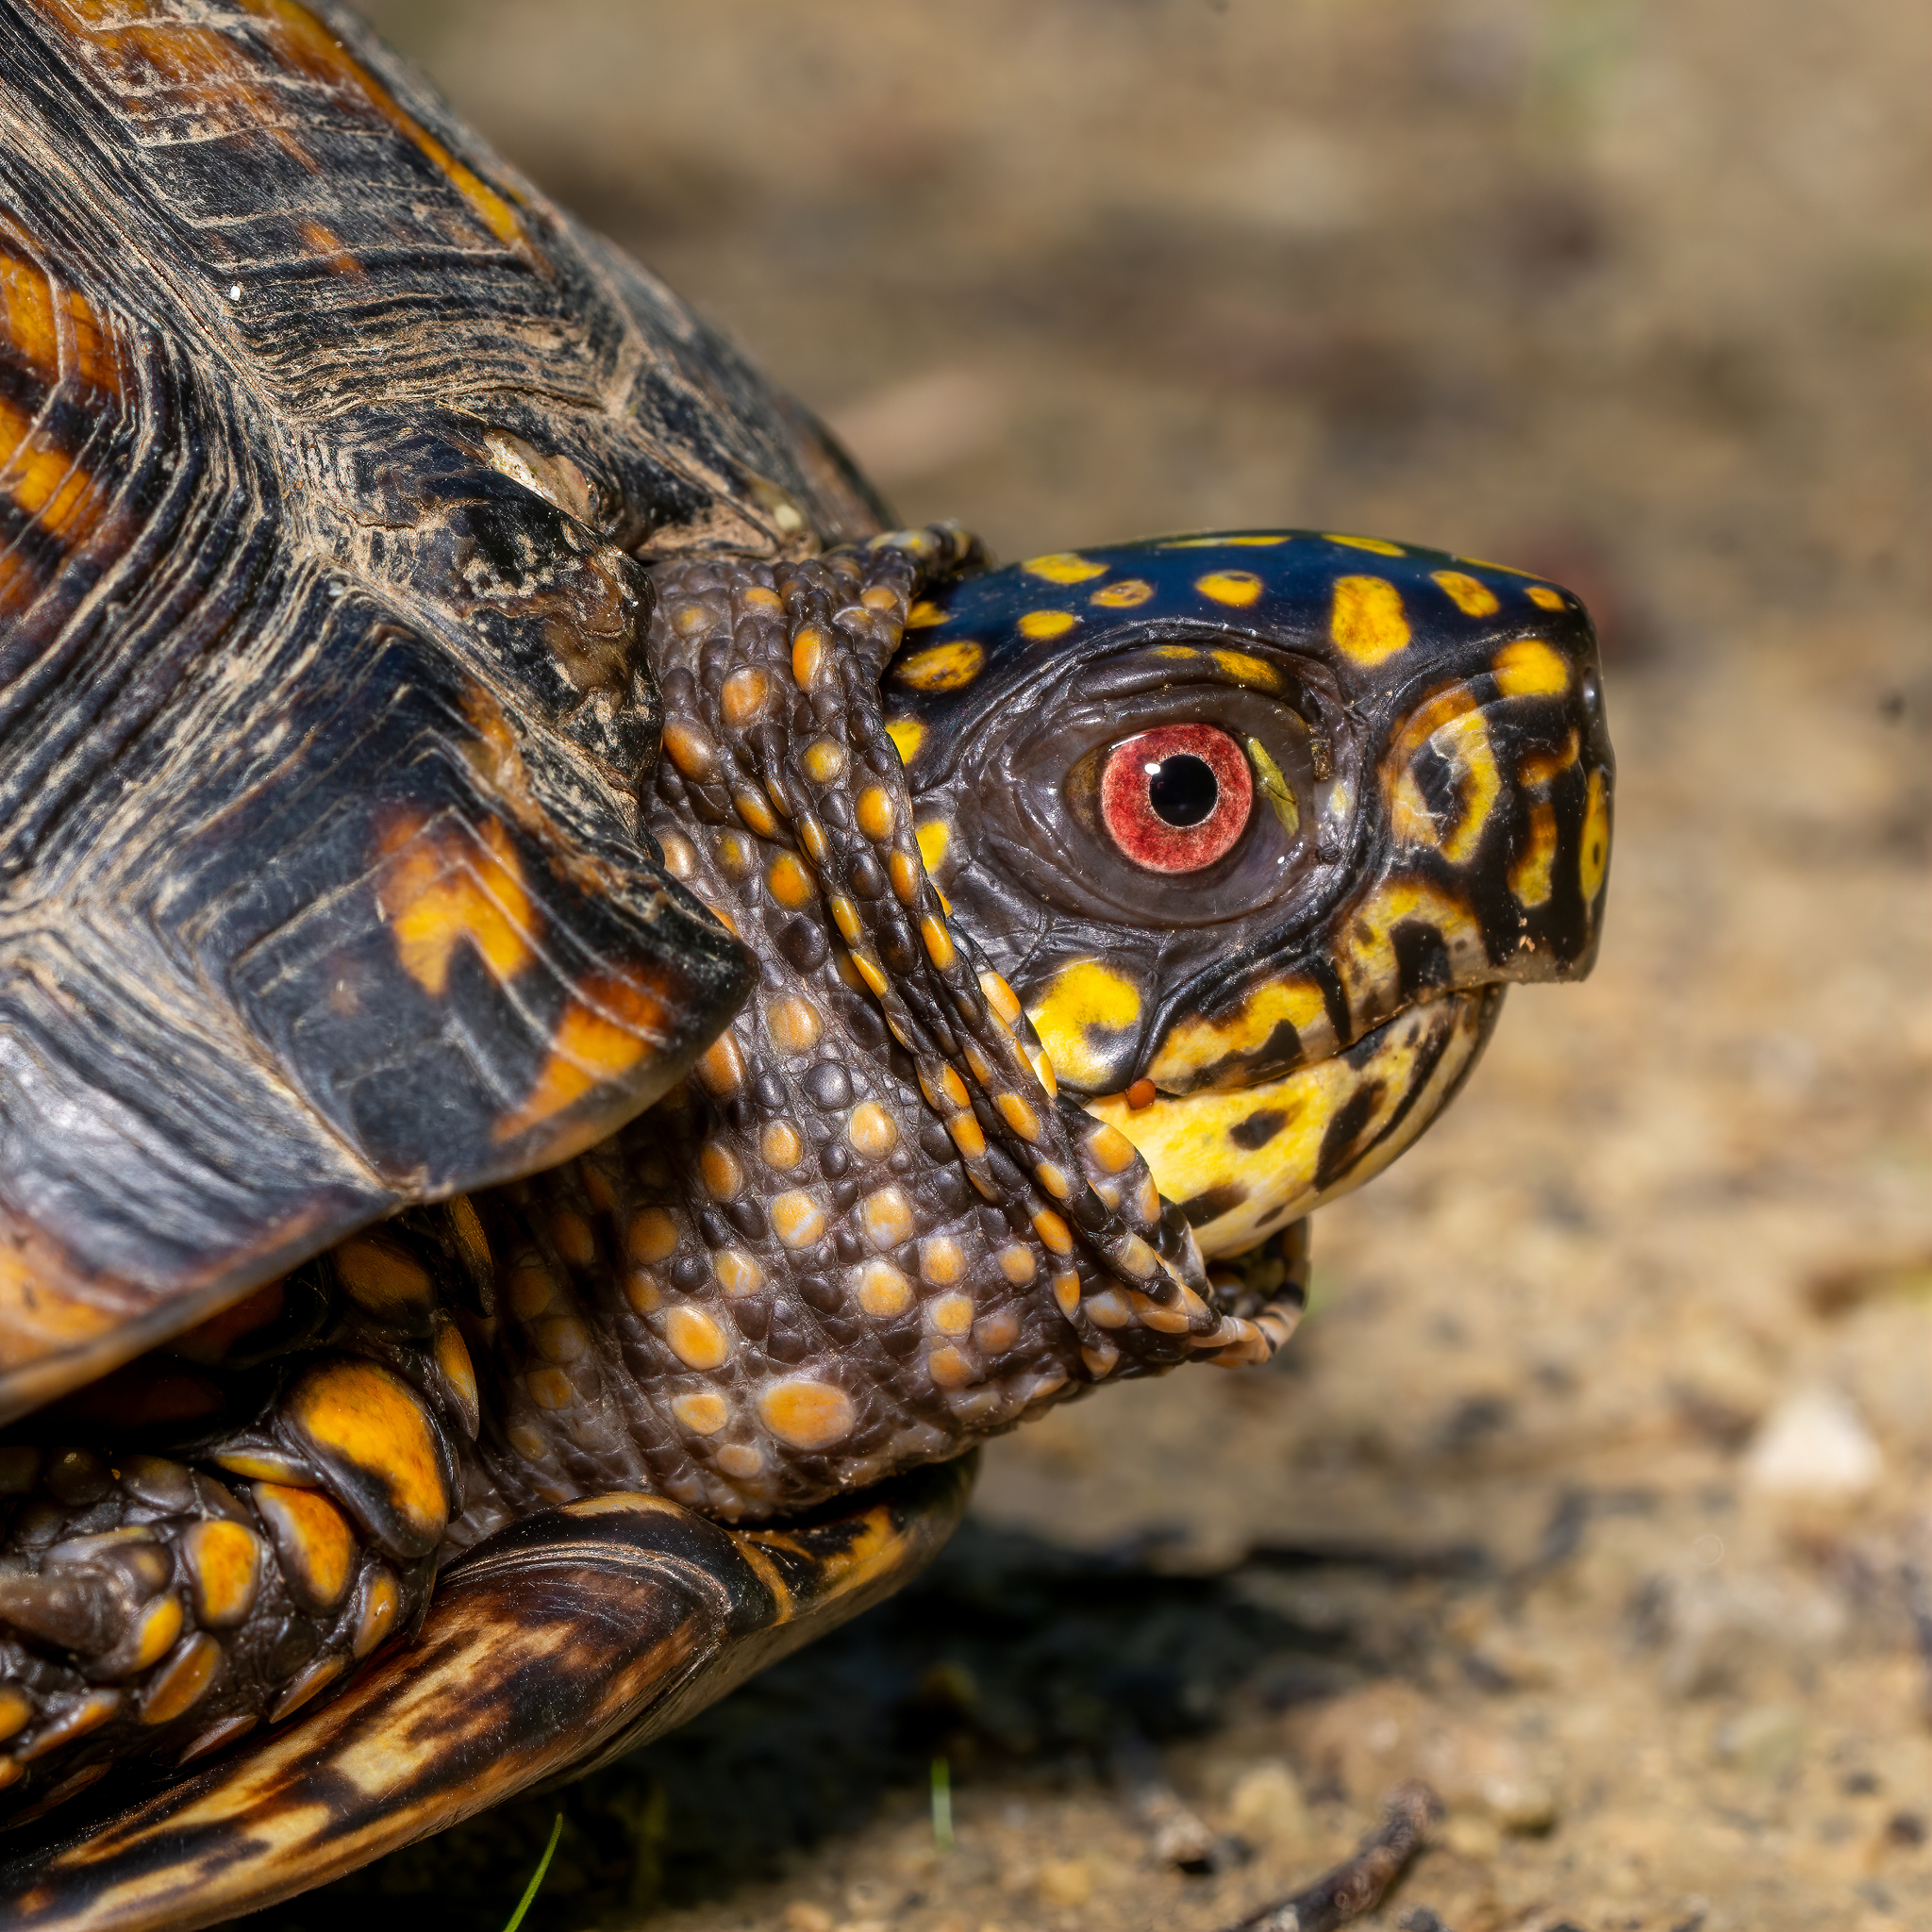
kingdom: Animalia
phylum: Chordata
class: Testudines
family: Emydidae
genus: Terrapene
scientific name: Terrapene carolina
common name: Common box turtle
